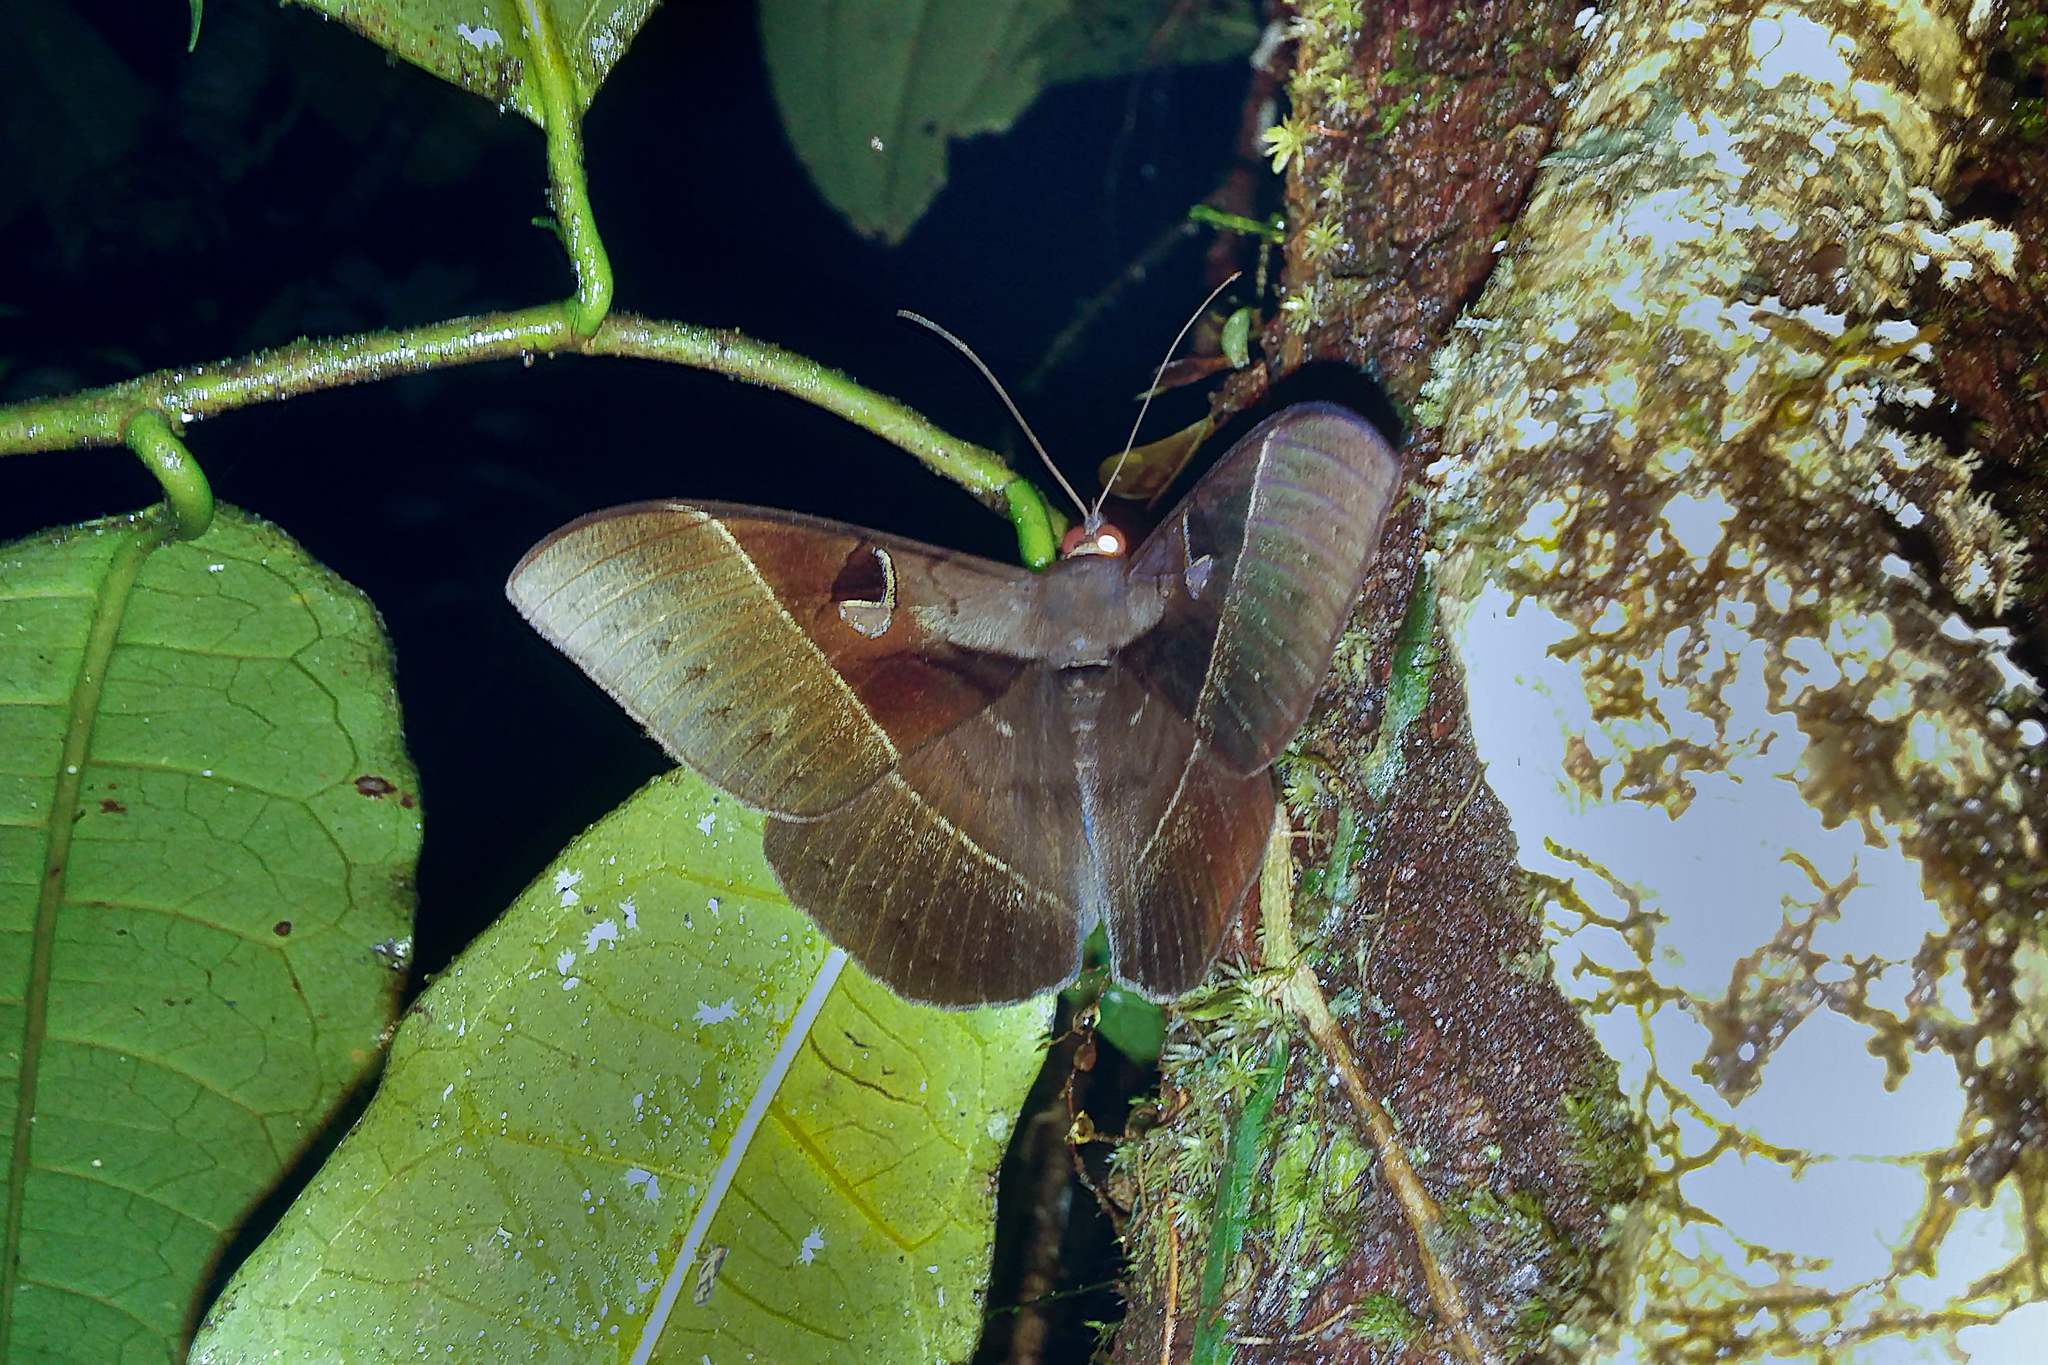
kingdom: Animalia
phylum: Arthropoda
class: Insecta
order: Lepidoptera
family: Erebidae
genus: Cyligramma
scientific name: Cyligramma joa
